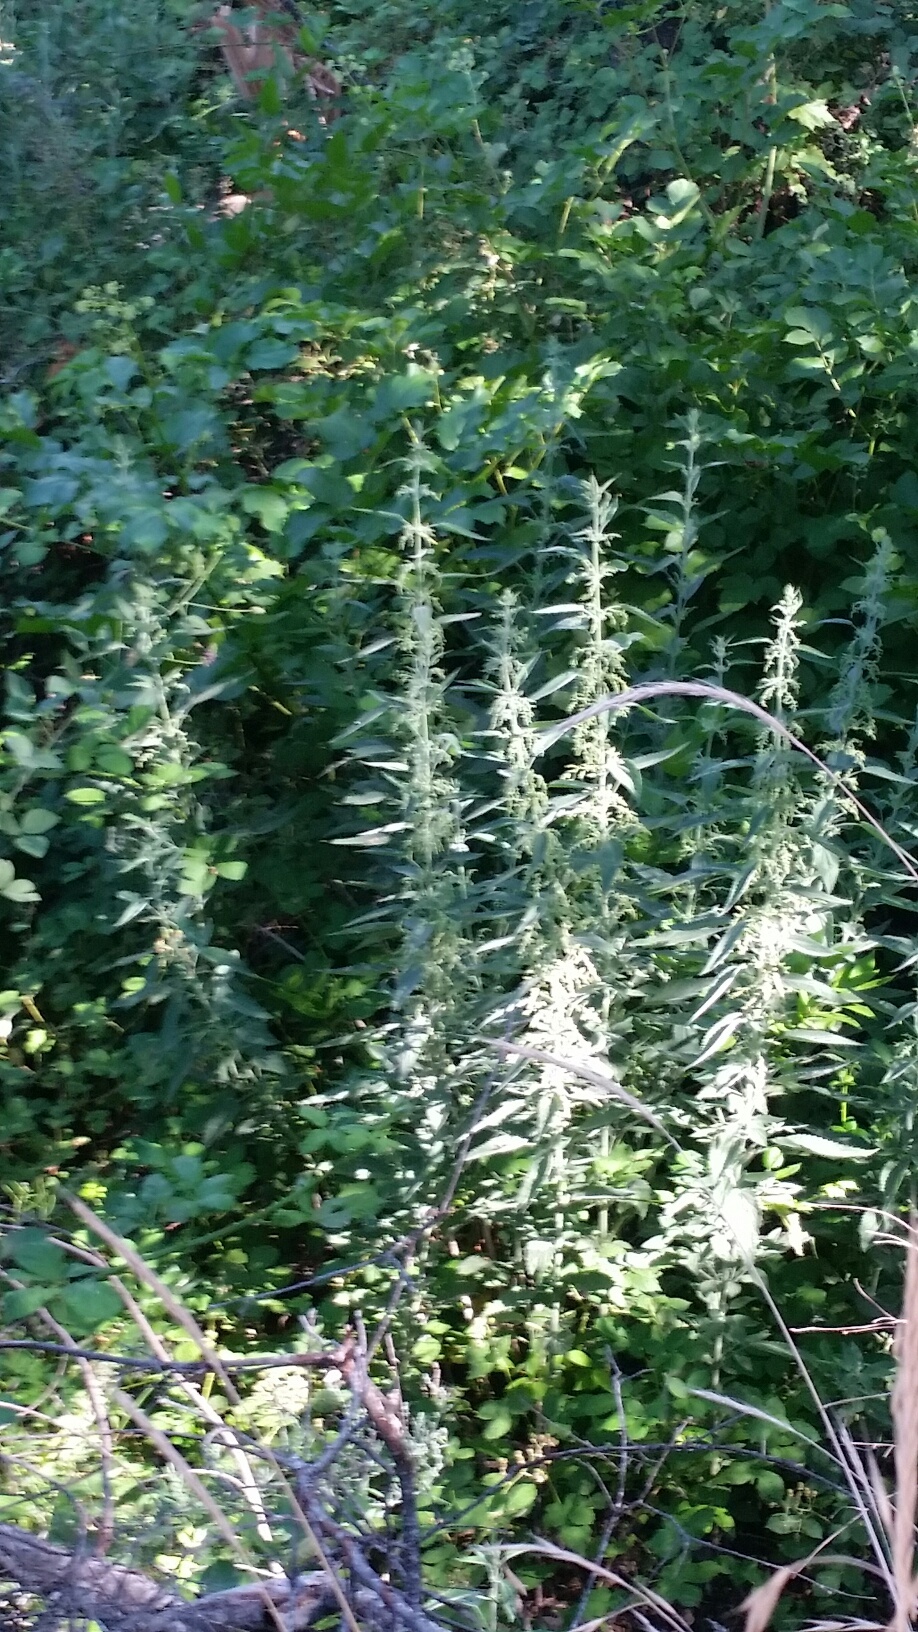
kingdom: Plantae
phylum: Tracheophyta
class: Magnoliopsida
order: Rosales
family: Urticaceae
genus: Urtica
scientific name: Urtica dioica
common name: Common nettle
